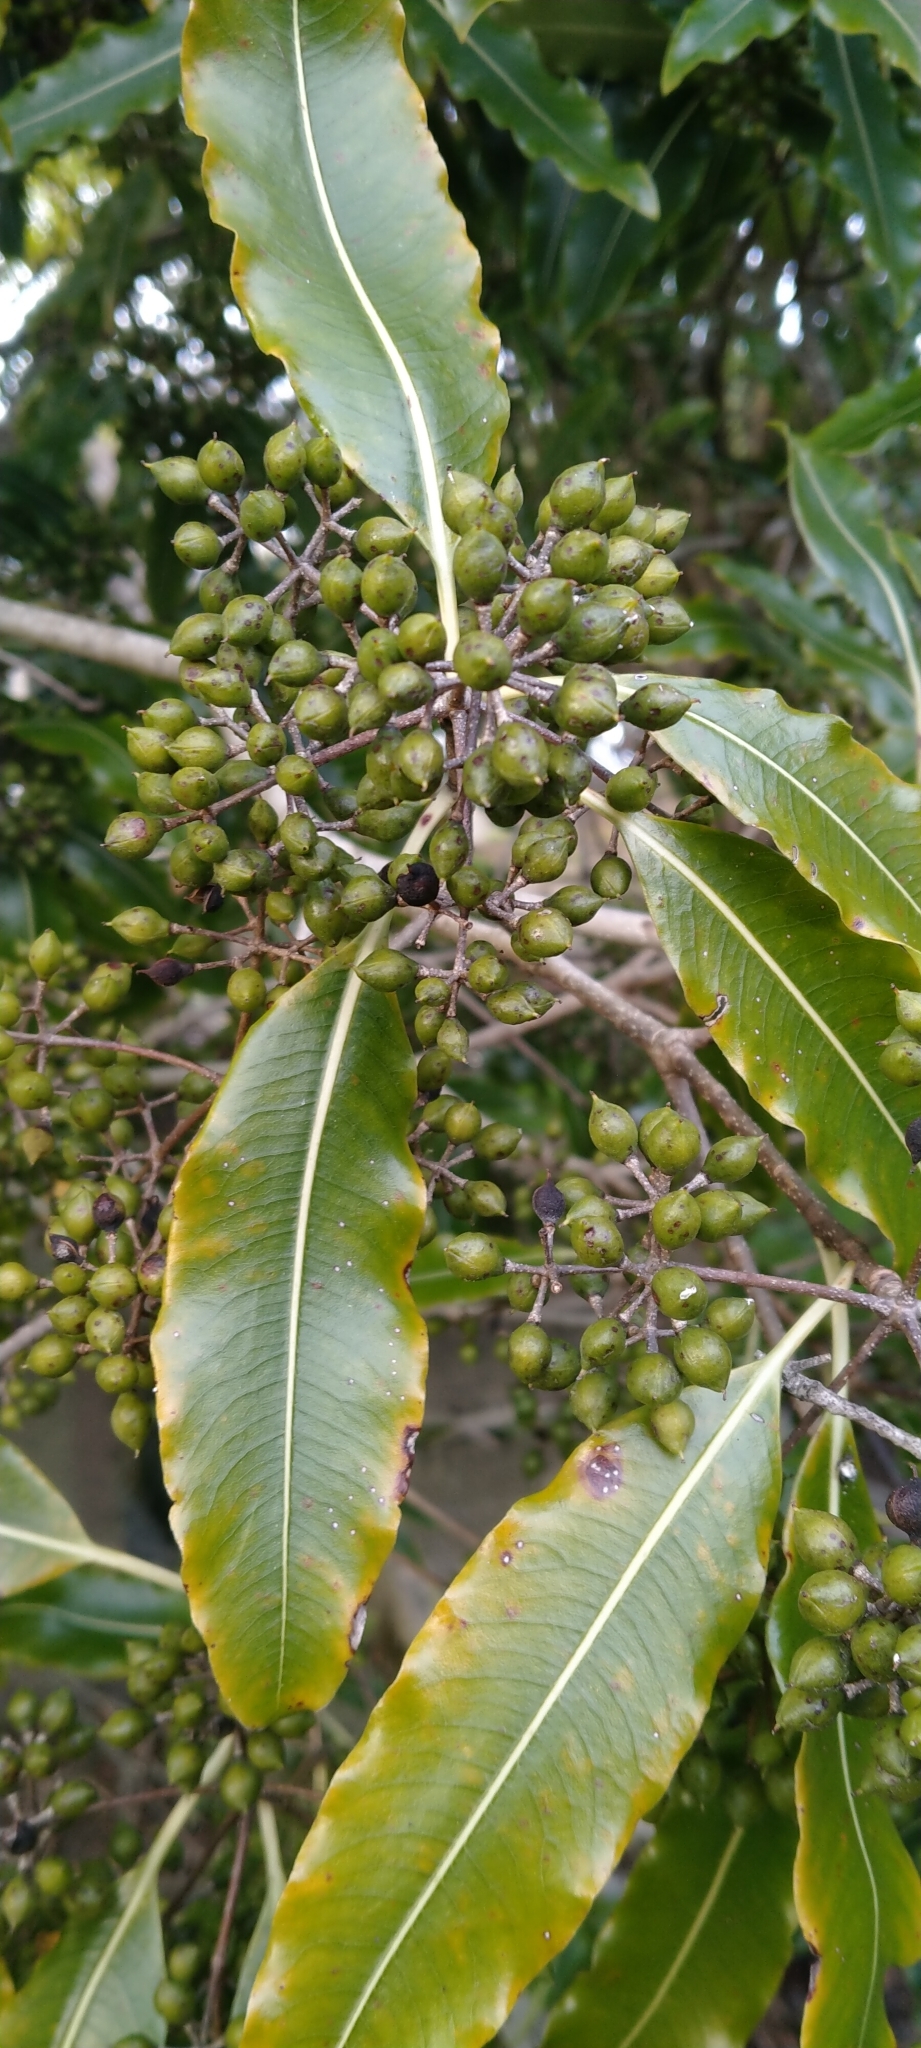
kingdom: Plantae
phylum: Tracheophyta
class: Magnoliopsida
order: Apiales
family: Pittosporaceae
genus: Pittosporum
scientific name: Pittosporum eugenioides
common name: Lemonwood
